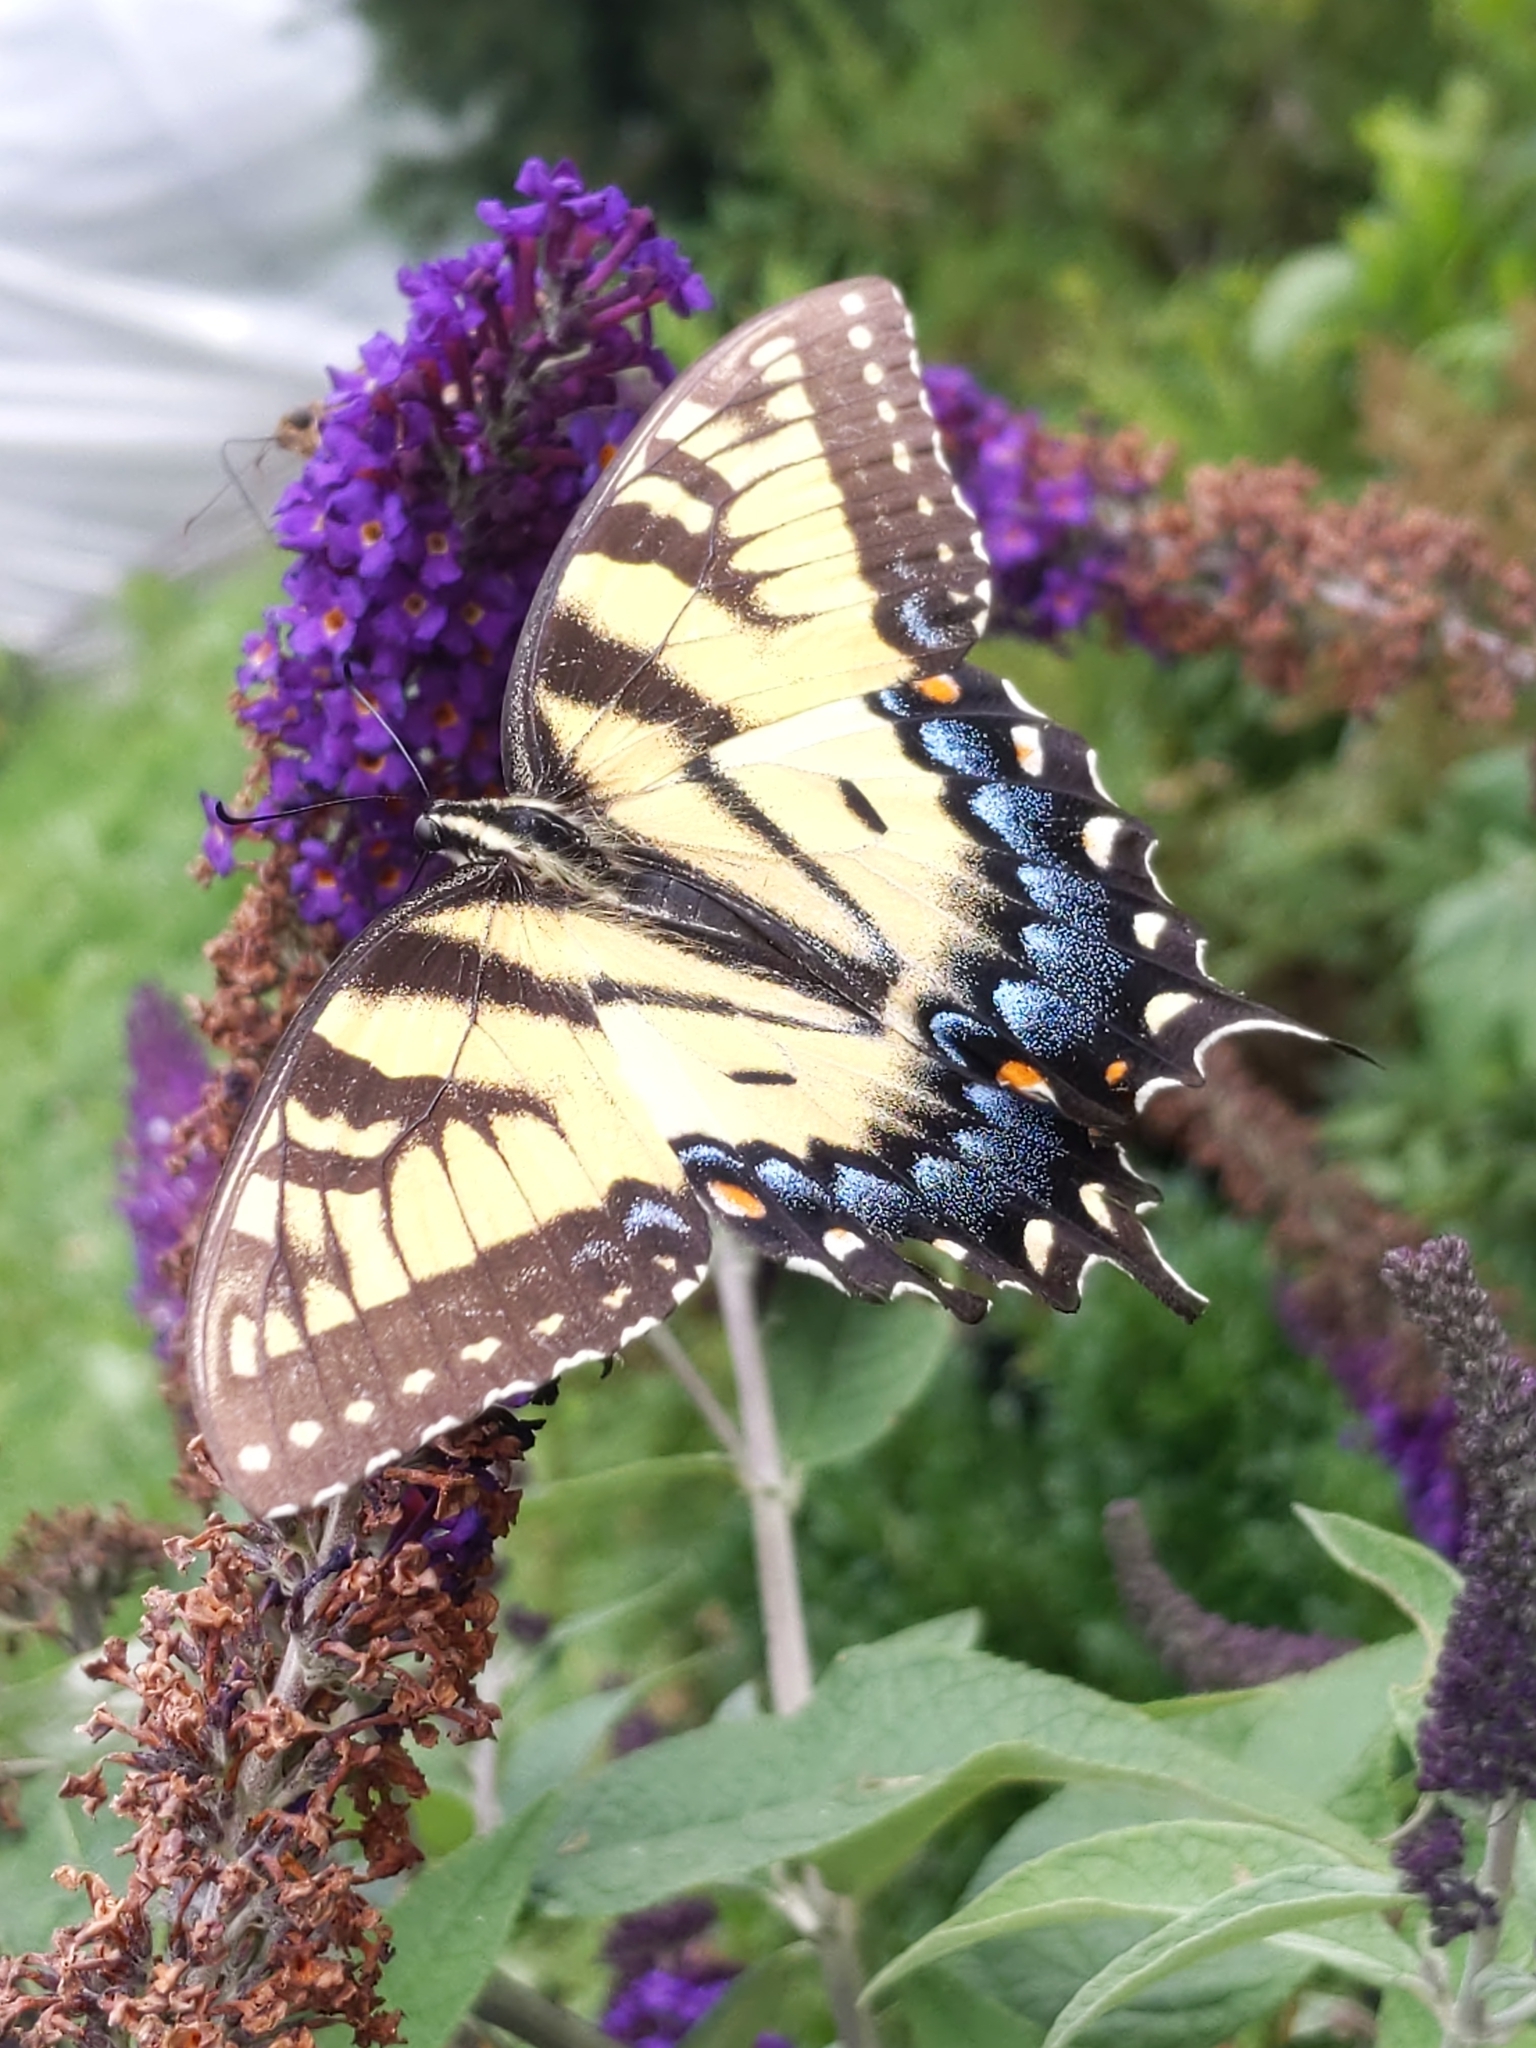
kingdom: Animalia
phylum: Arthropoda
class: Insecta
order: Lepidoptera
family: Papilionidae
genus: Papilio
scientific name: Papilio glaucus
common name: Tiger swallowtail
